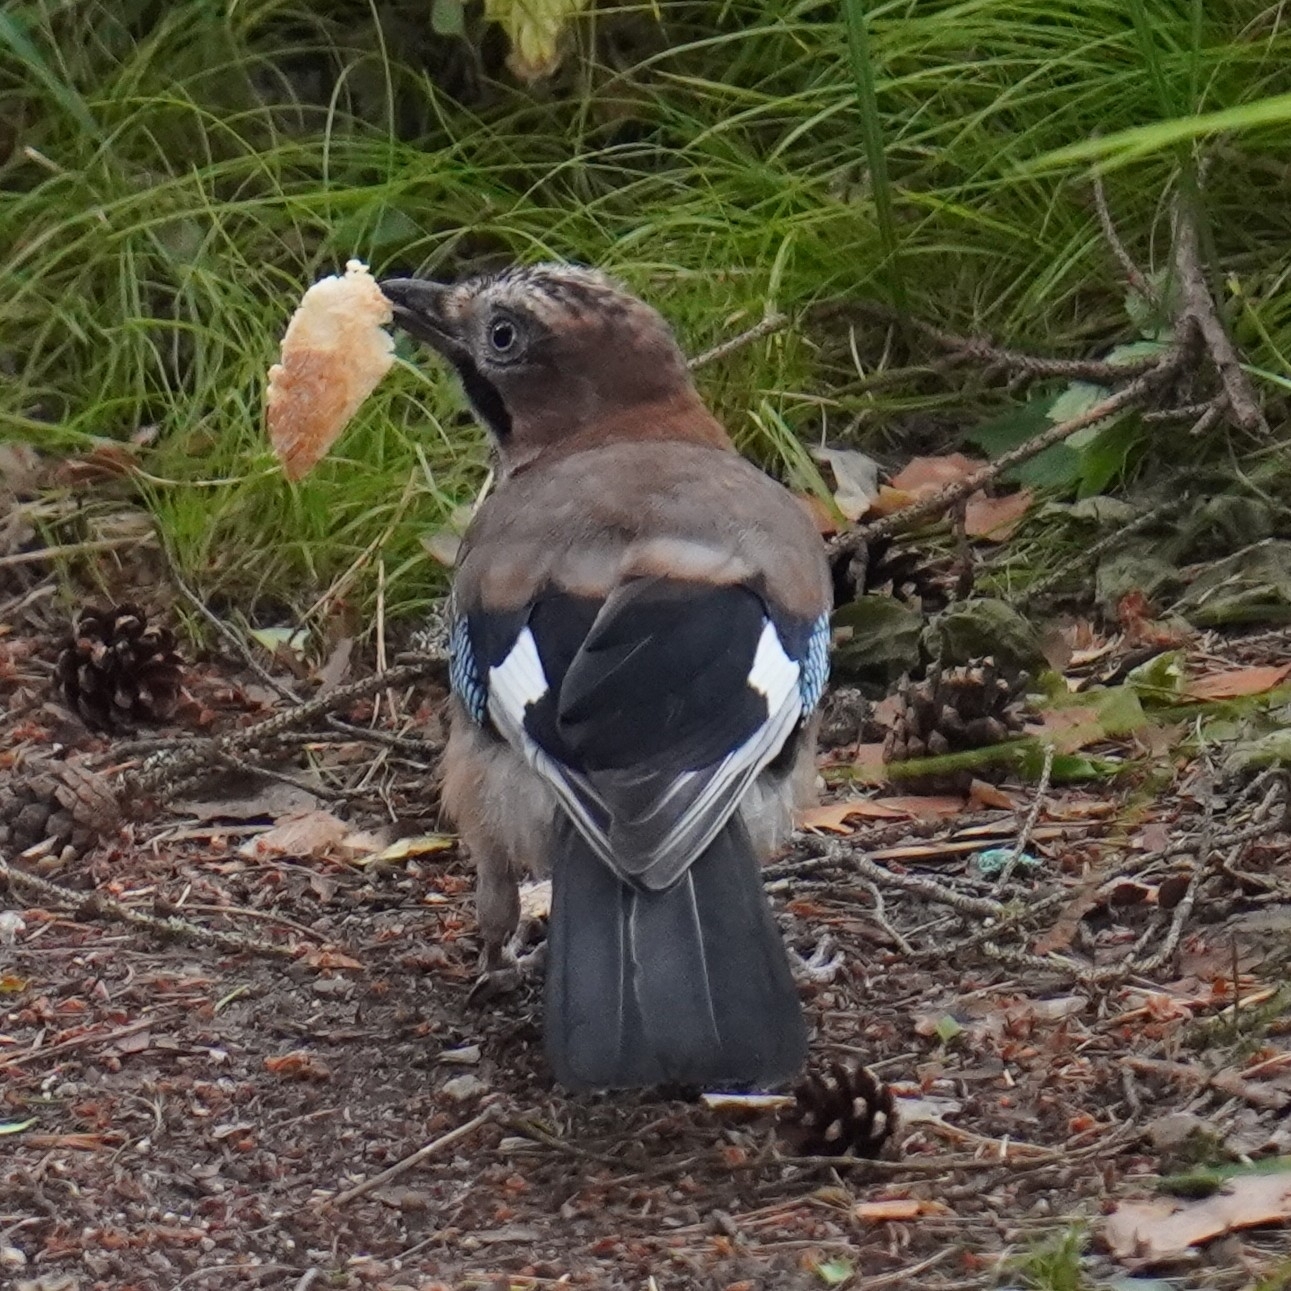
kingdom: Animalia
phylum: Chordata
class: Aves
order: Passeriformes
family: Corvidae
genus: Garrulus
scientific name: Garrulus glandarius
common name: Eurasian jay
